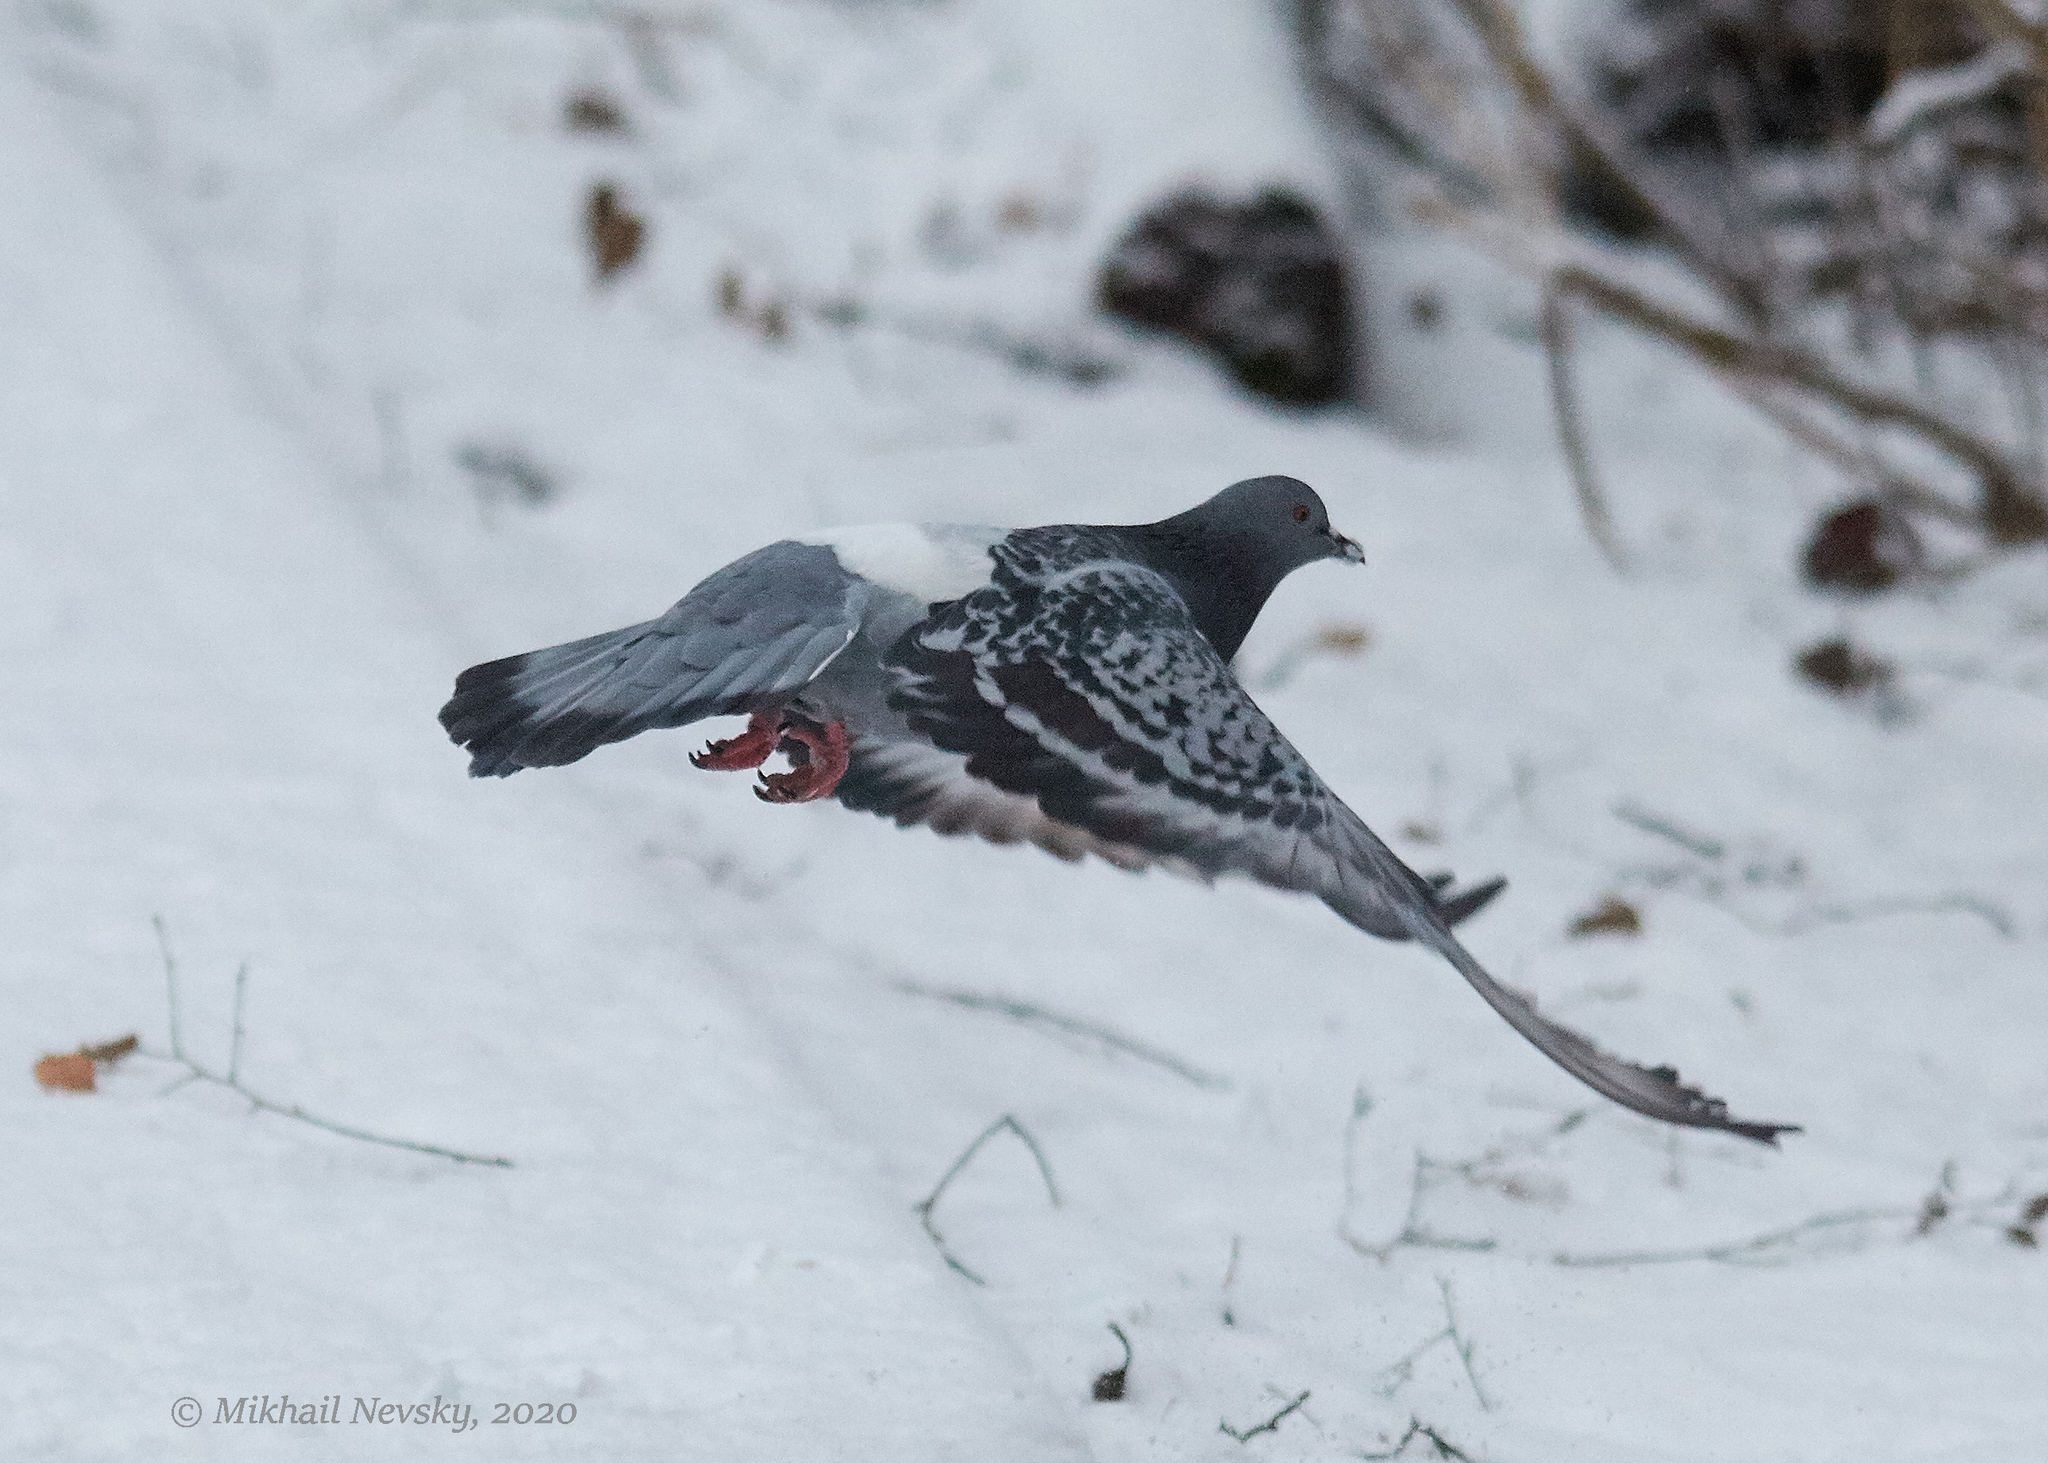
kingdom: Animalia
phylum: Chordata
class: Aves
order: Columbiformes
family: Columbidae
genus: Columba
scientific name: Columba livia
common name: Rock pigeon
